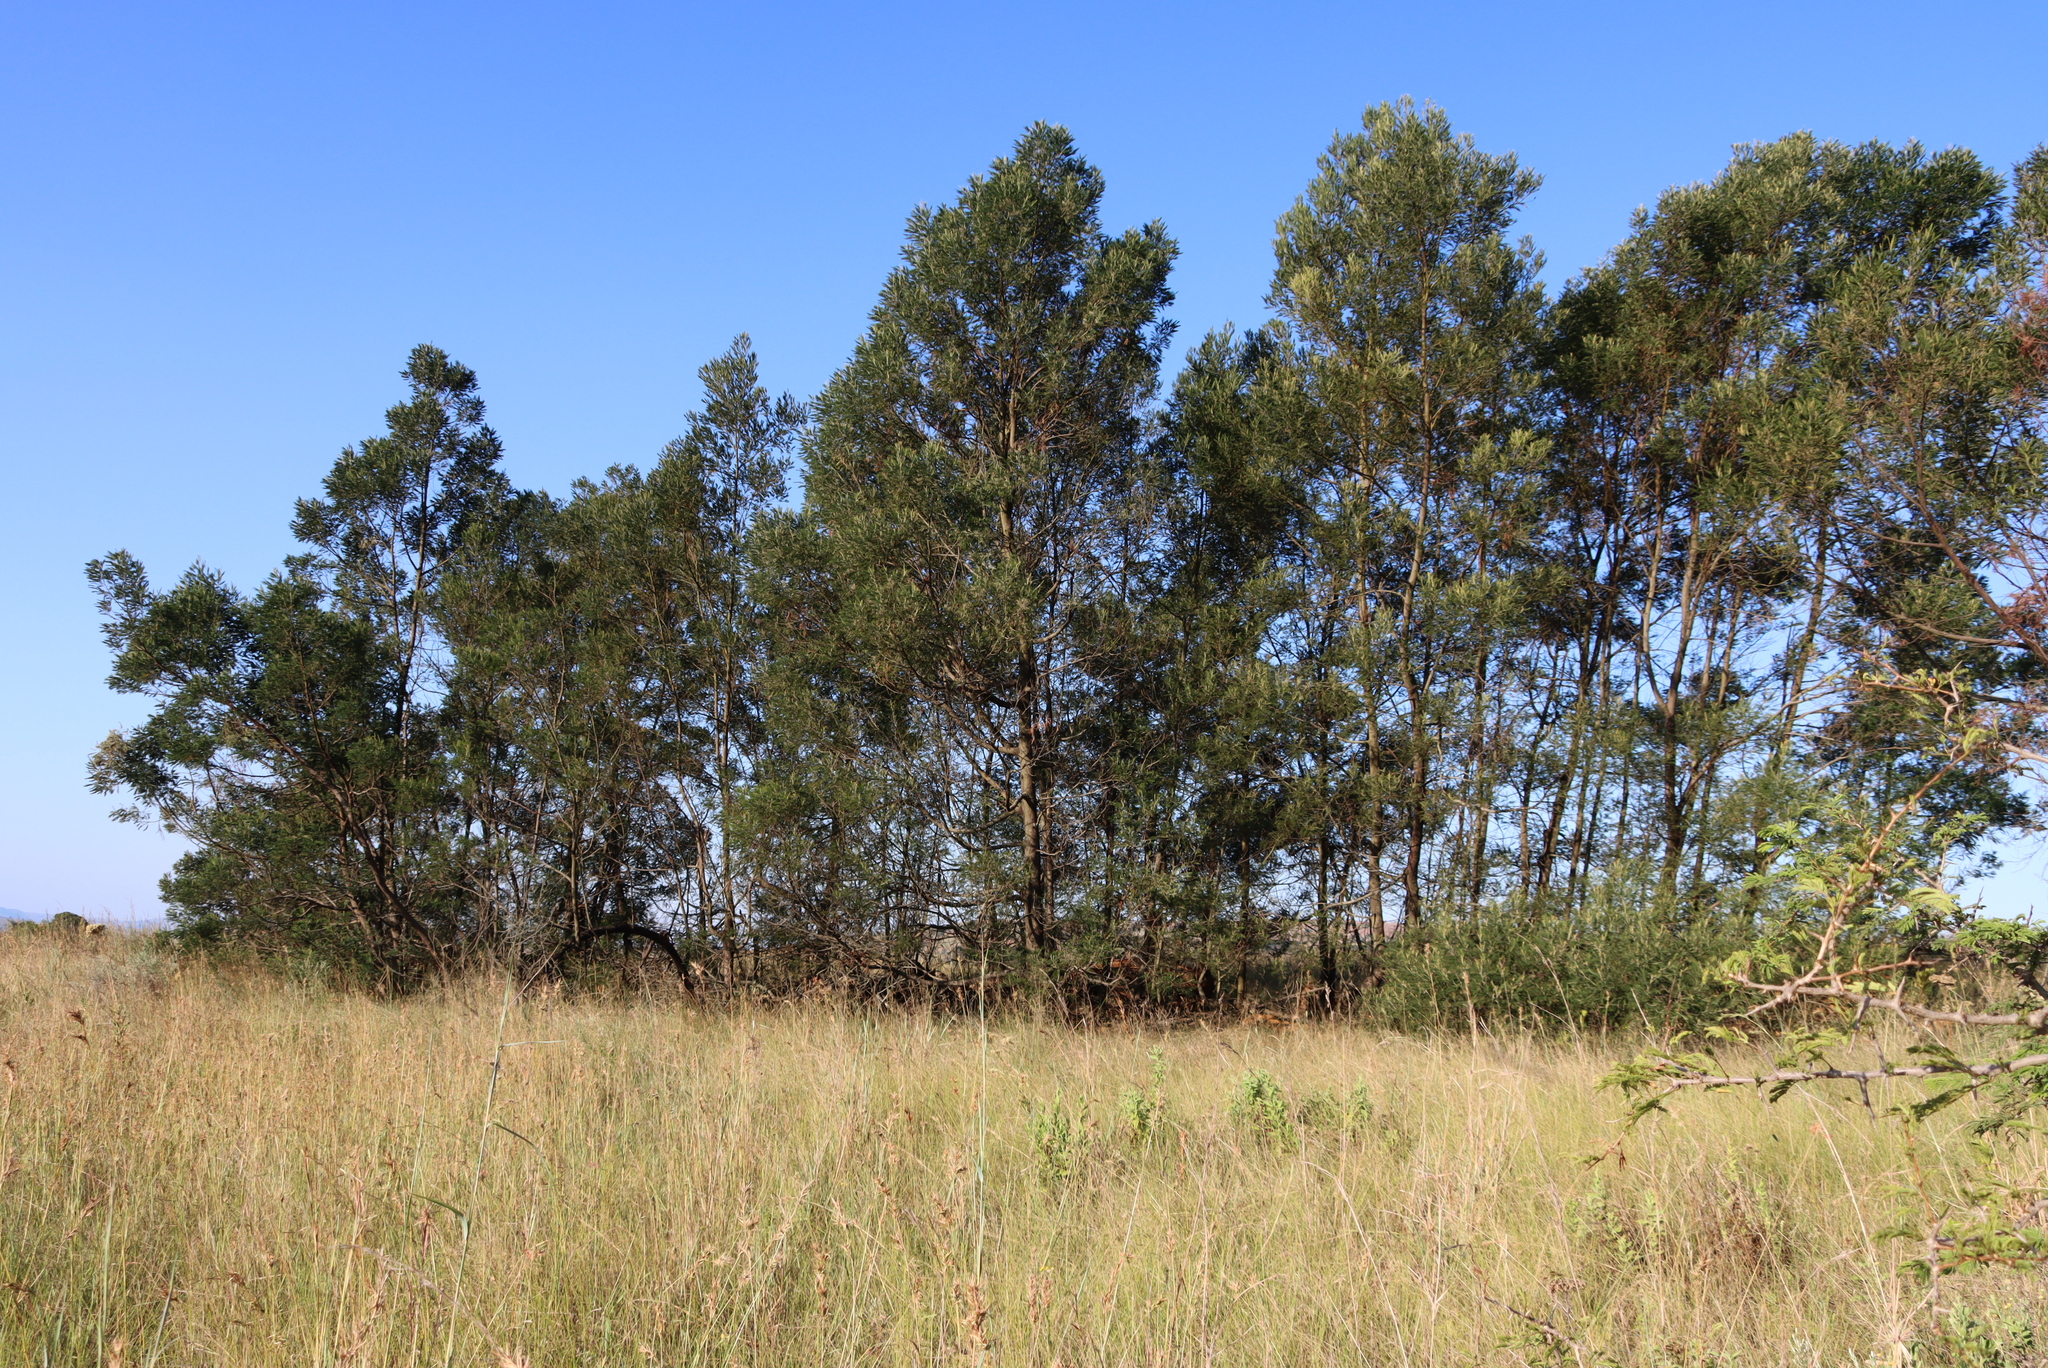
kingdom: Plantae
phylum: Tracheophyta
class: Magnoliopsida
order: Fabales
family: Fabaceae
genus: Acacia
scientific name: Acacia mearnsii
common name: Black wattle
